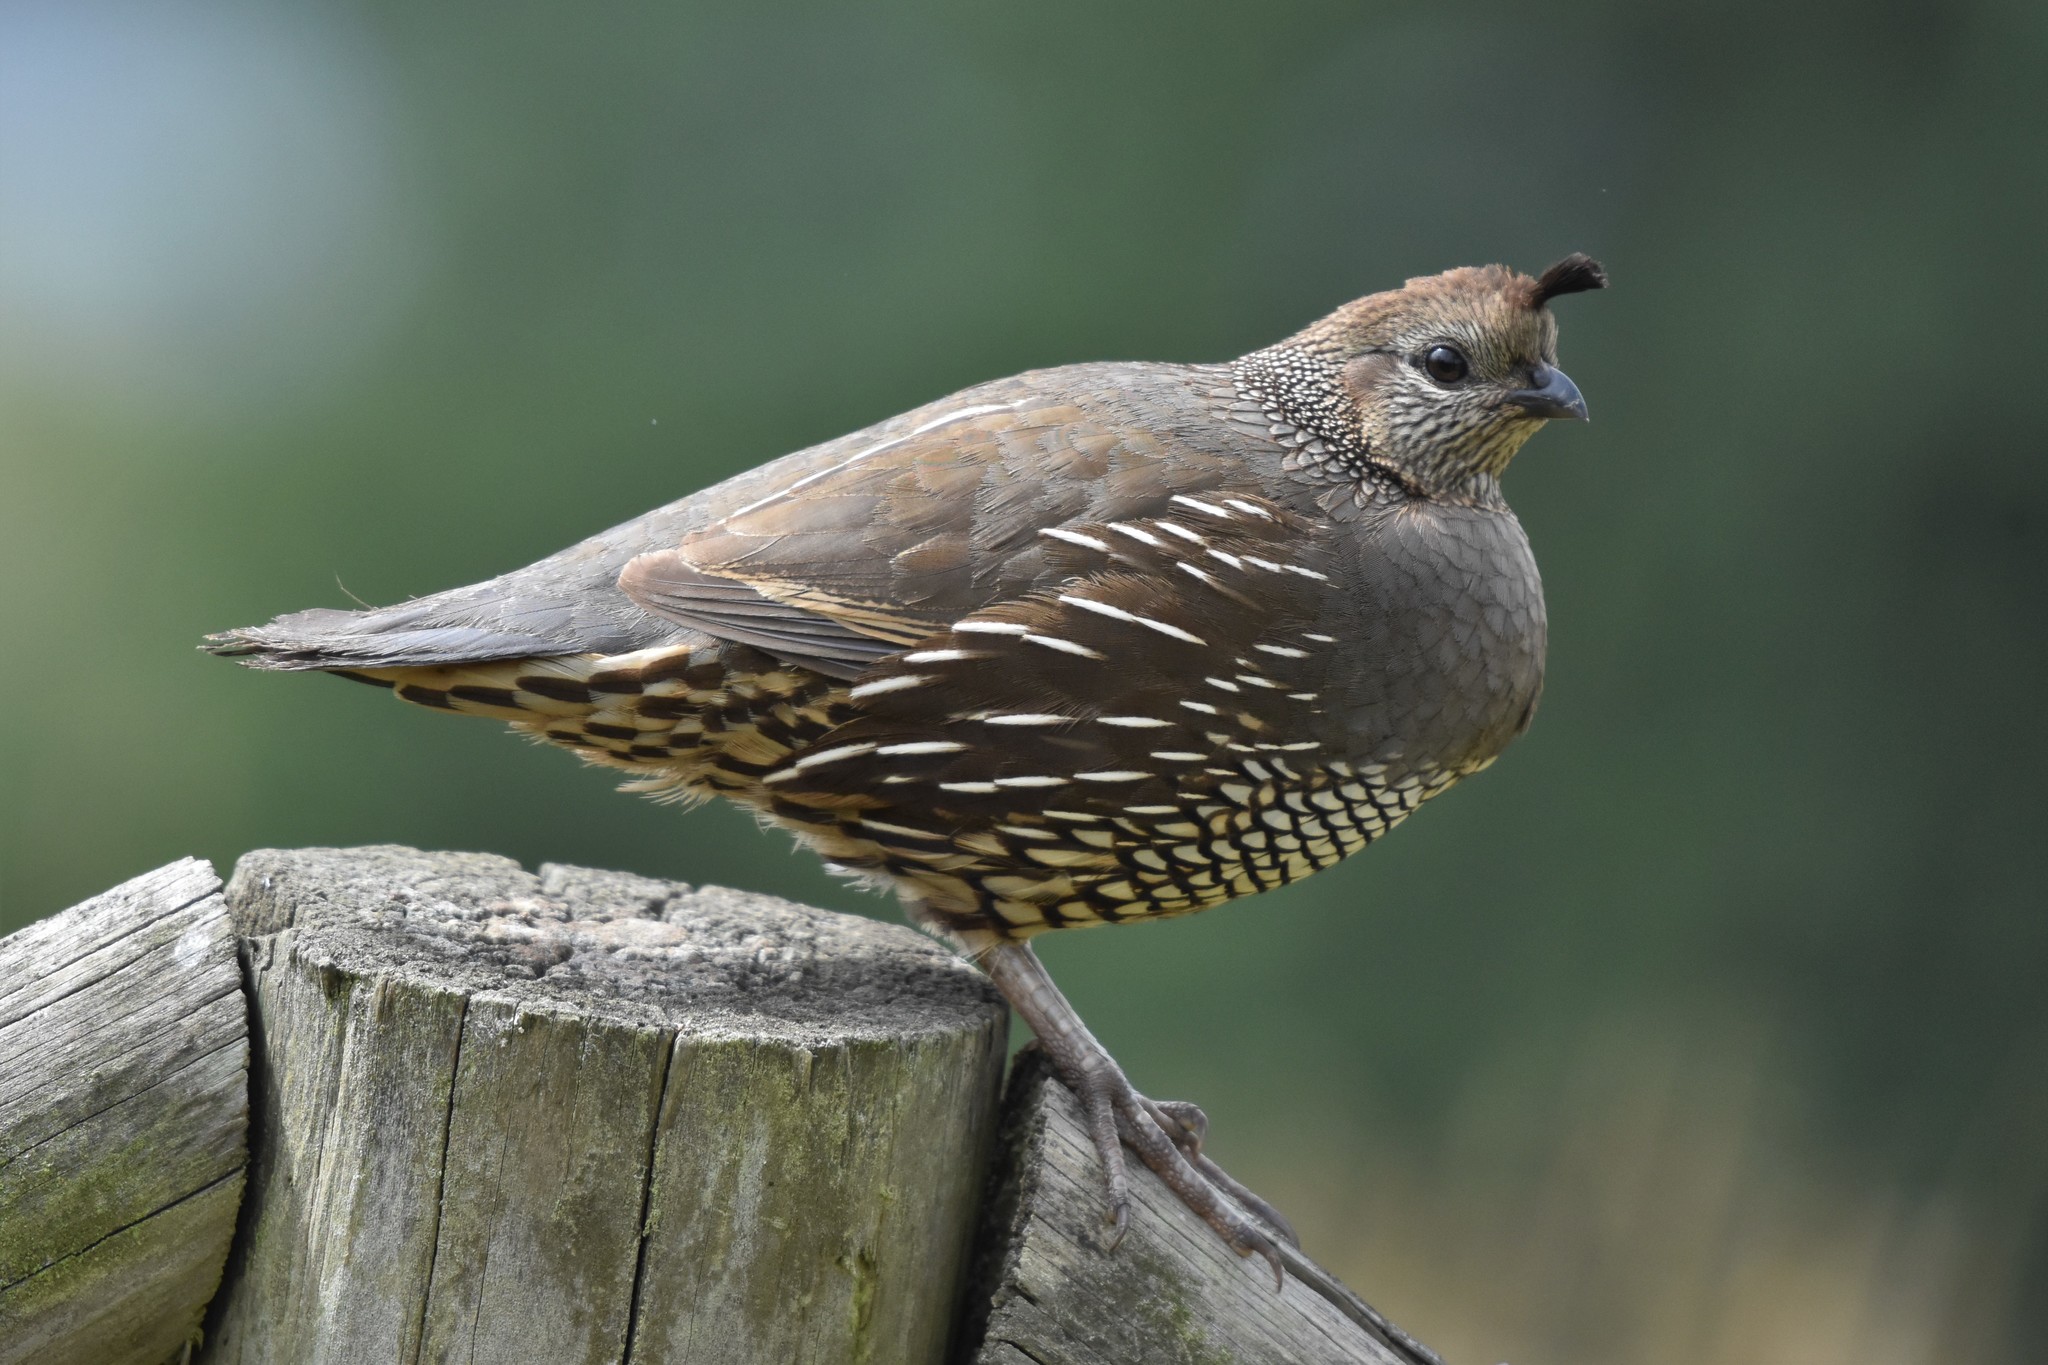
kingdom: Animalia
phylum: Chordata
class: Aves
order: Galliformes
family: Odontophoridae
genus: Callipepla
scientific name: Callipepla californica
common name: California quail
